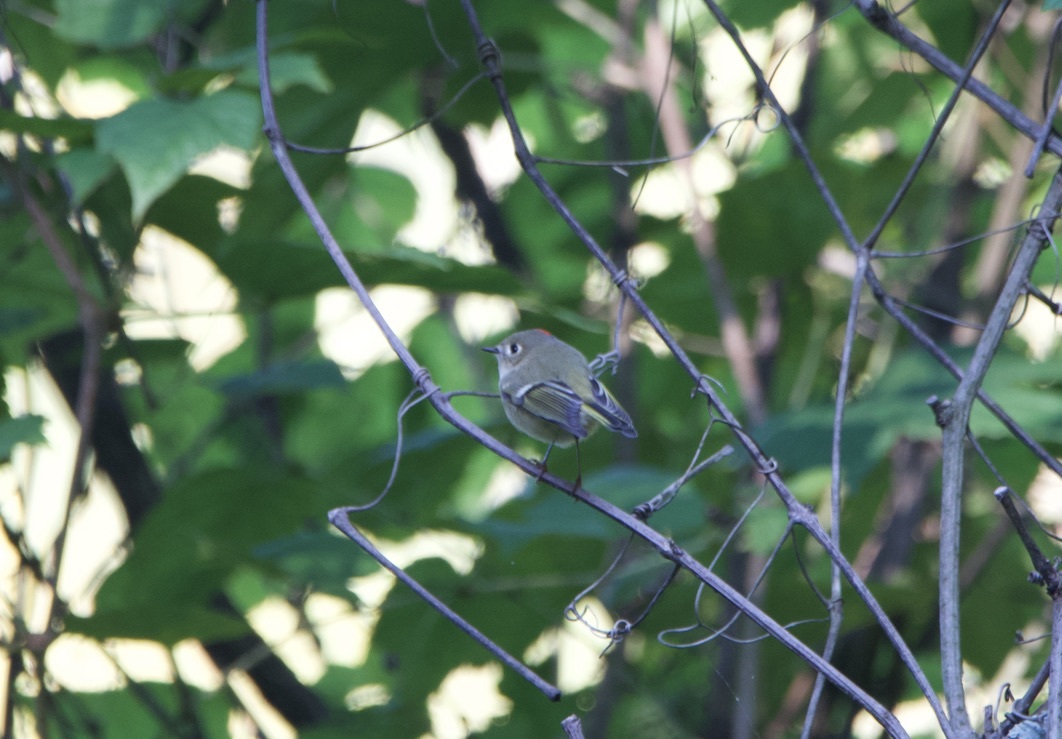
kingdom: Animalia
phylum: Chordata
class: Aves
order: Passeriformes
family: Regulidae
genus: Regulus
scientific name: Regulus calendula
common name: Ruby-crowned kinglet
